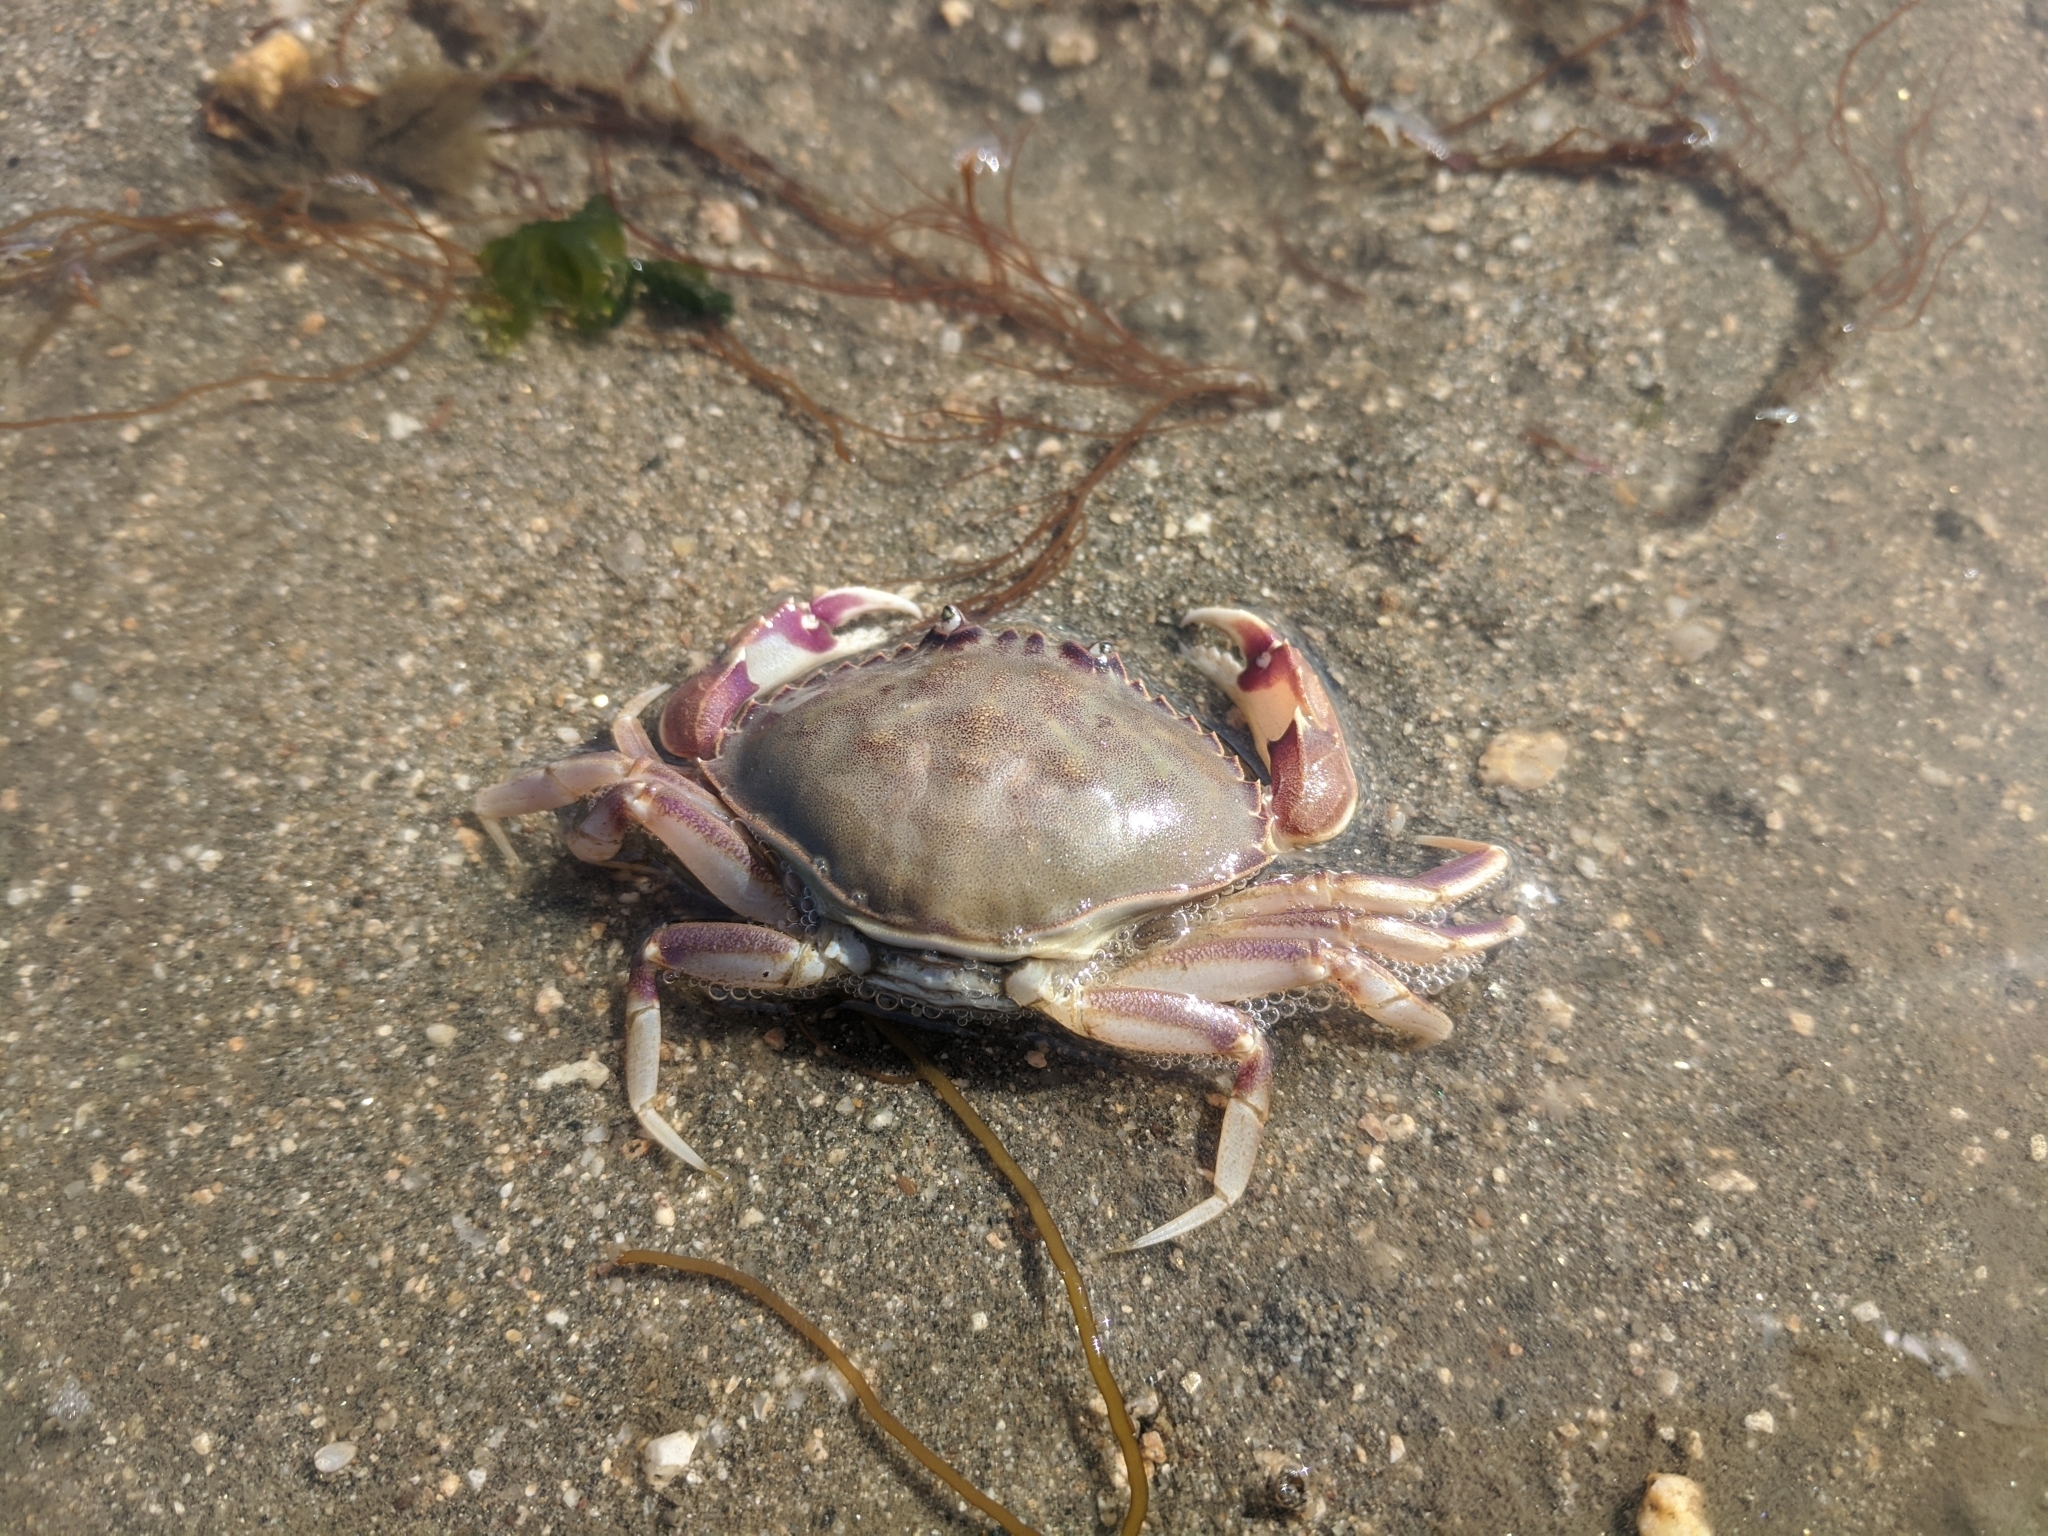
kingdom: Animalia
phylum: Arthropoda
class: Malacostraca
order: Decapoda
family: Cancridae
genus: Metacarcinus
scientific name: Metacarcinus gracilis
